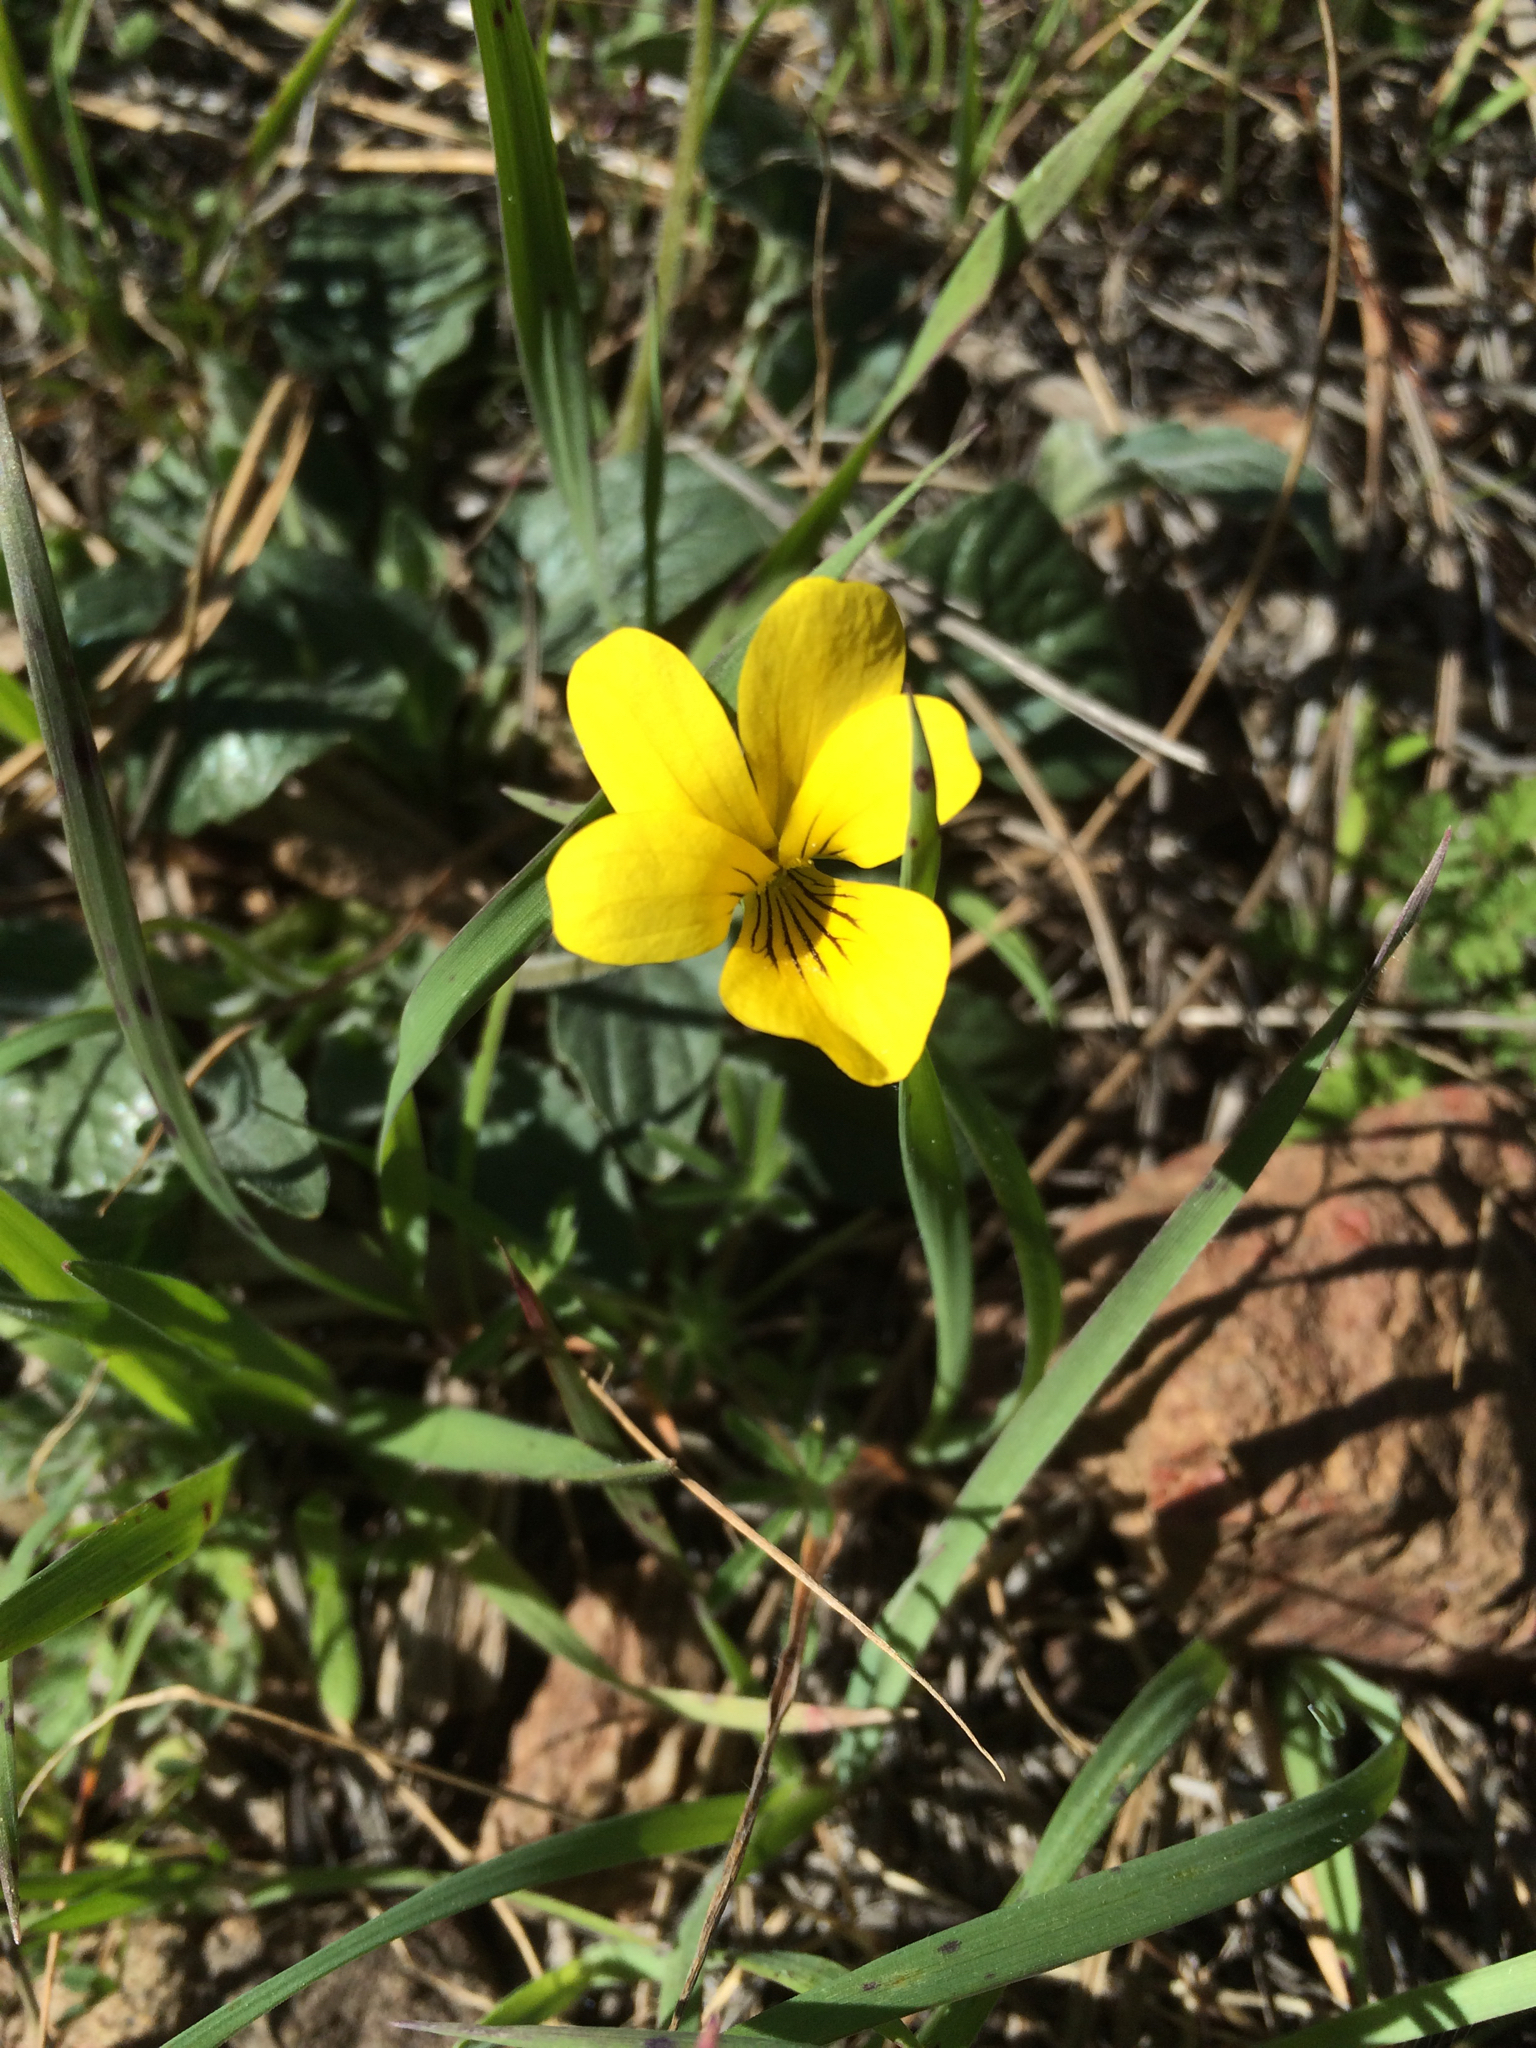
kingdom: Plantae
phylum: Tracheophyta
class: Magnoliopsida
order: Malpighiales
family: Violaceae
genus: Viola
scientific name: Viola purpurea
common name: Pine violet
